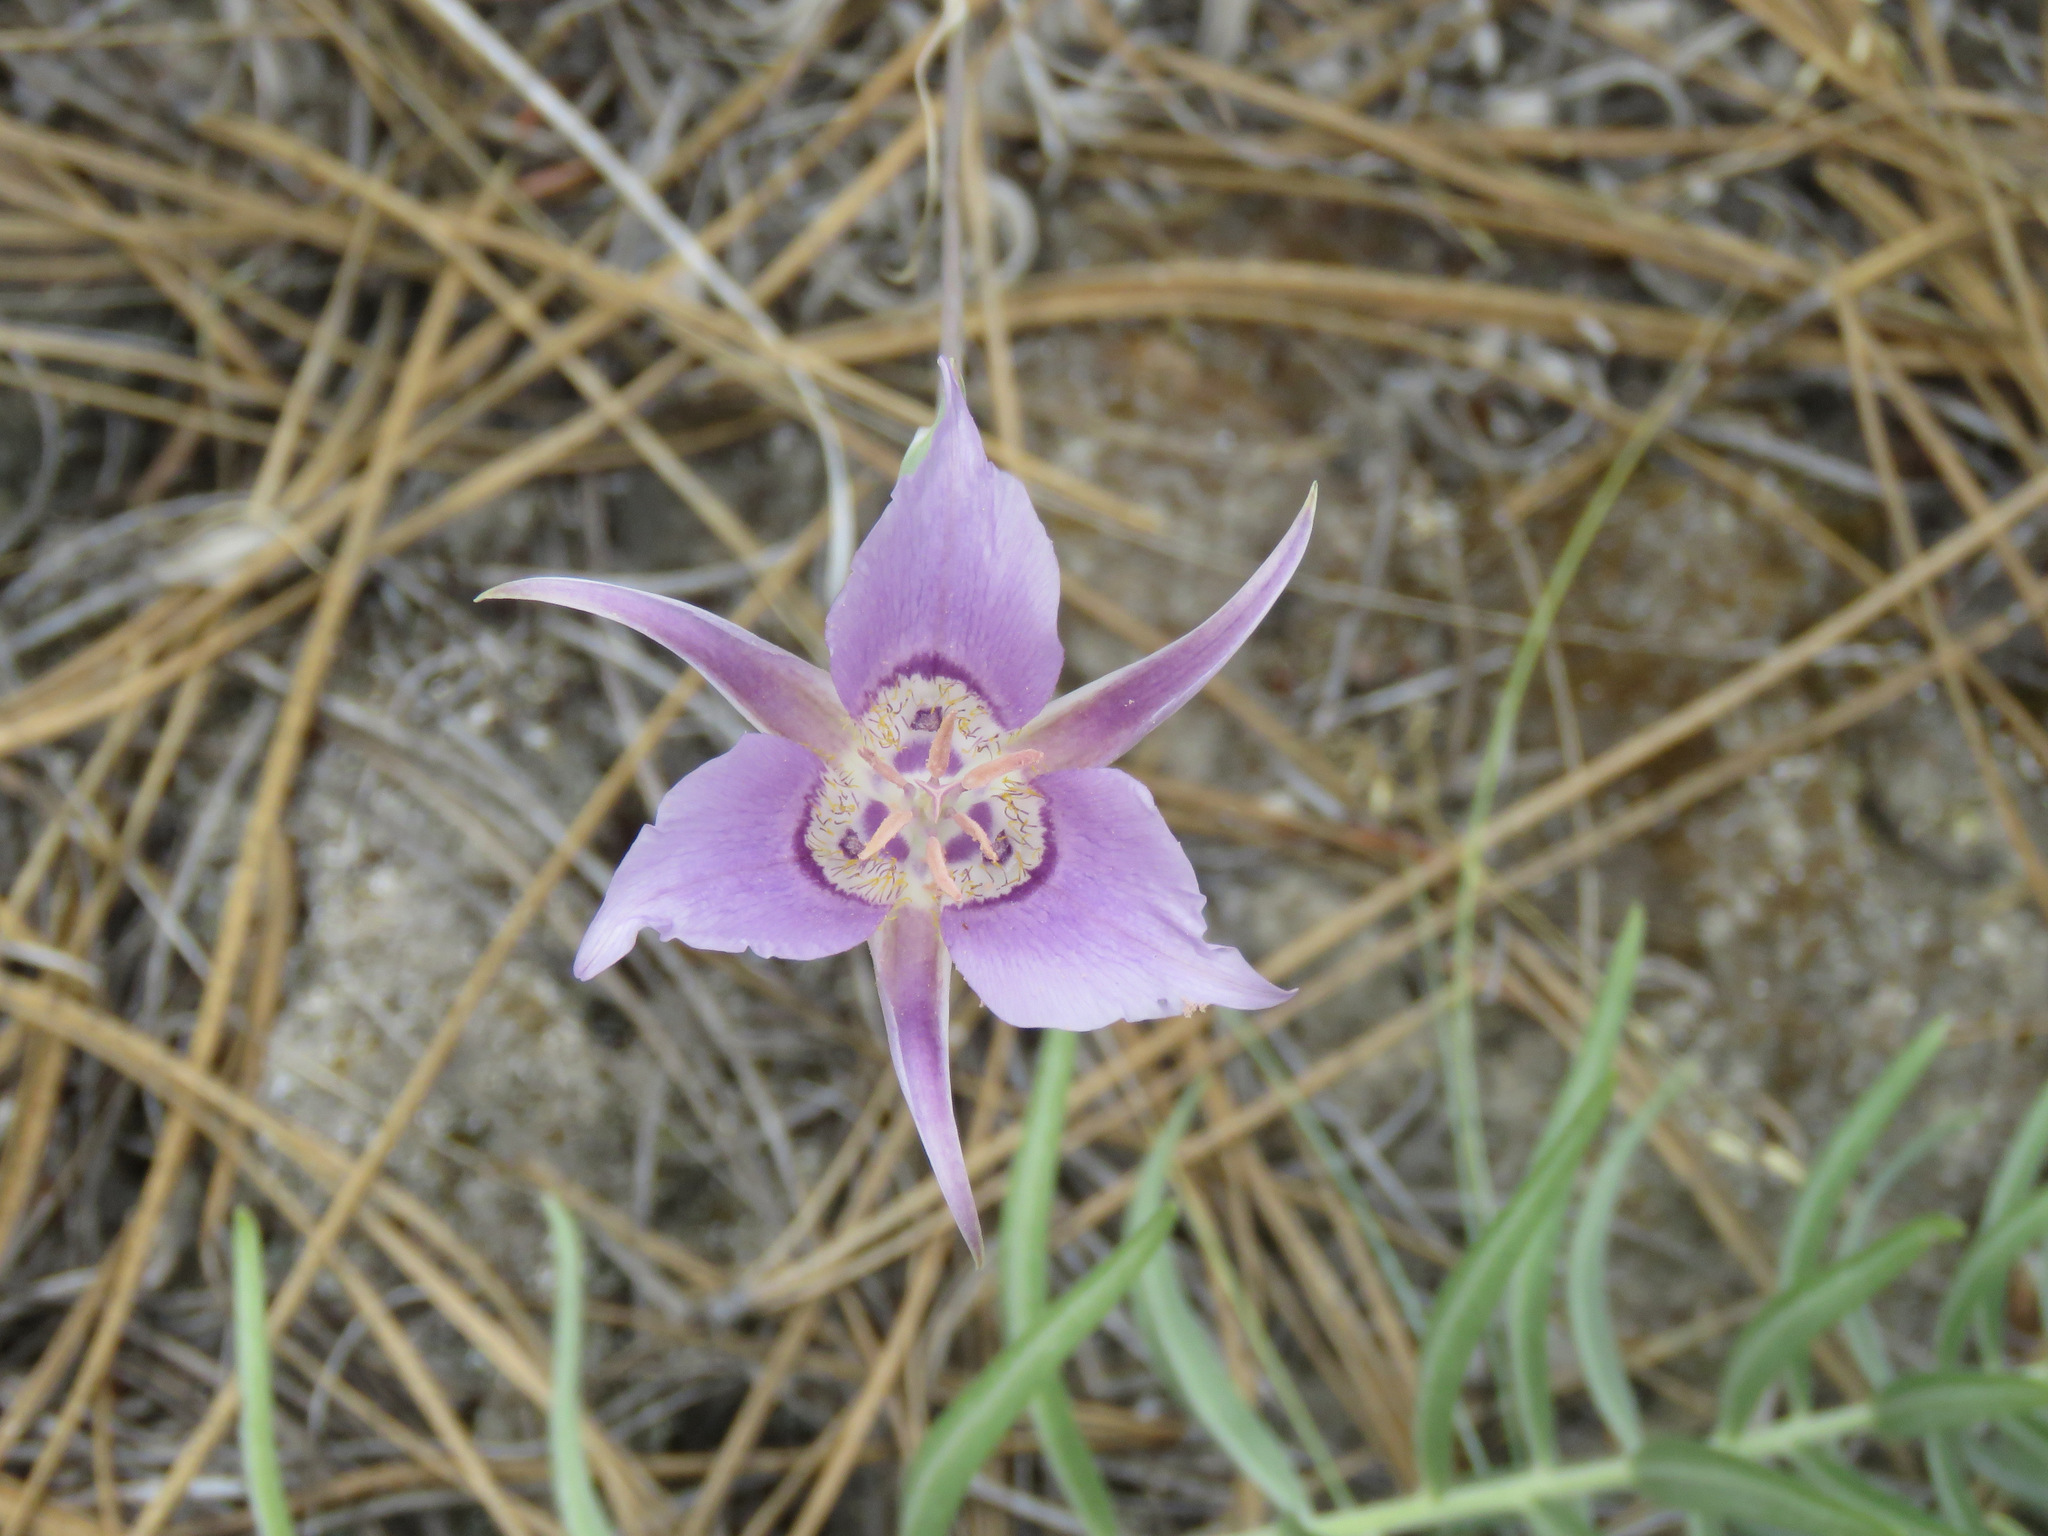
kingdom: Plantae
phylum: Tracheophyta
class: Liliopsida
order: Liliales
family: Liliaceae
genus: Calochortus
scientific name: Calochortus macrocarpus
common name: Green-band mariposa lily
